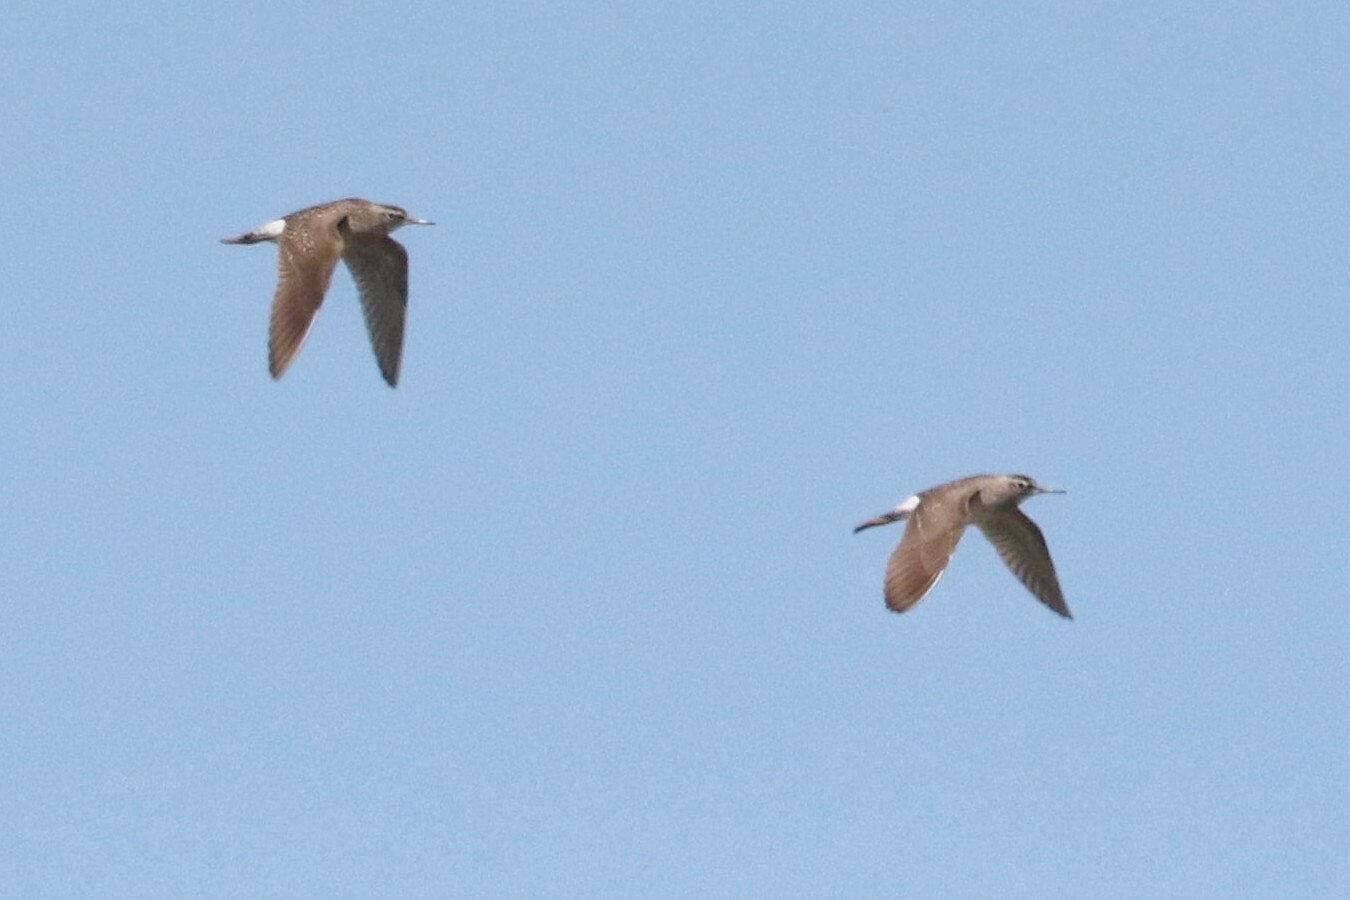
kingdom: Animalia
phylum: Chordata
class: Aves
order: Charadriiformes
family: Scolopacidae
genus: Tringa
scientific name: Tringa glareola
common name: Wood sandpiper
